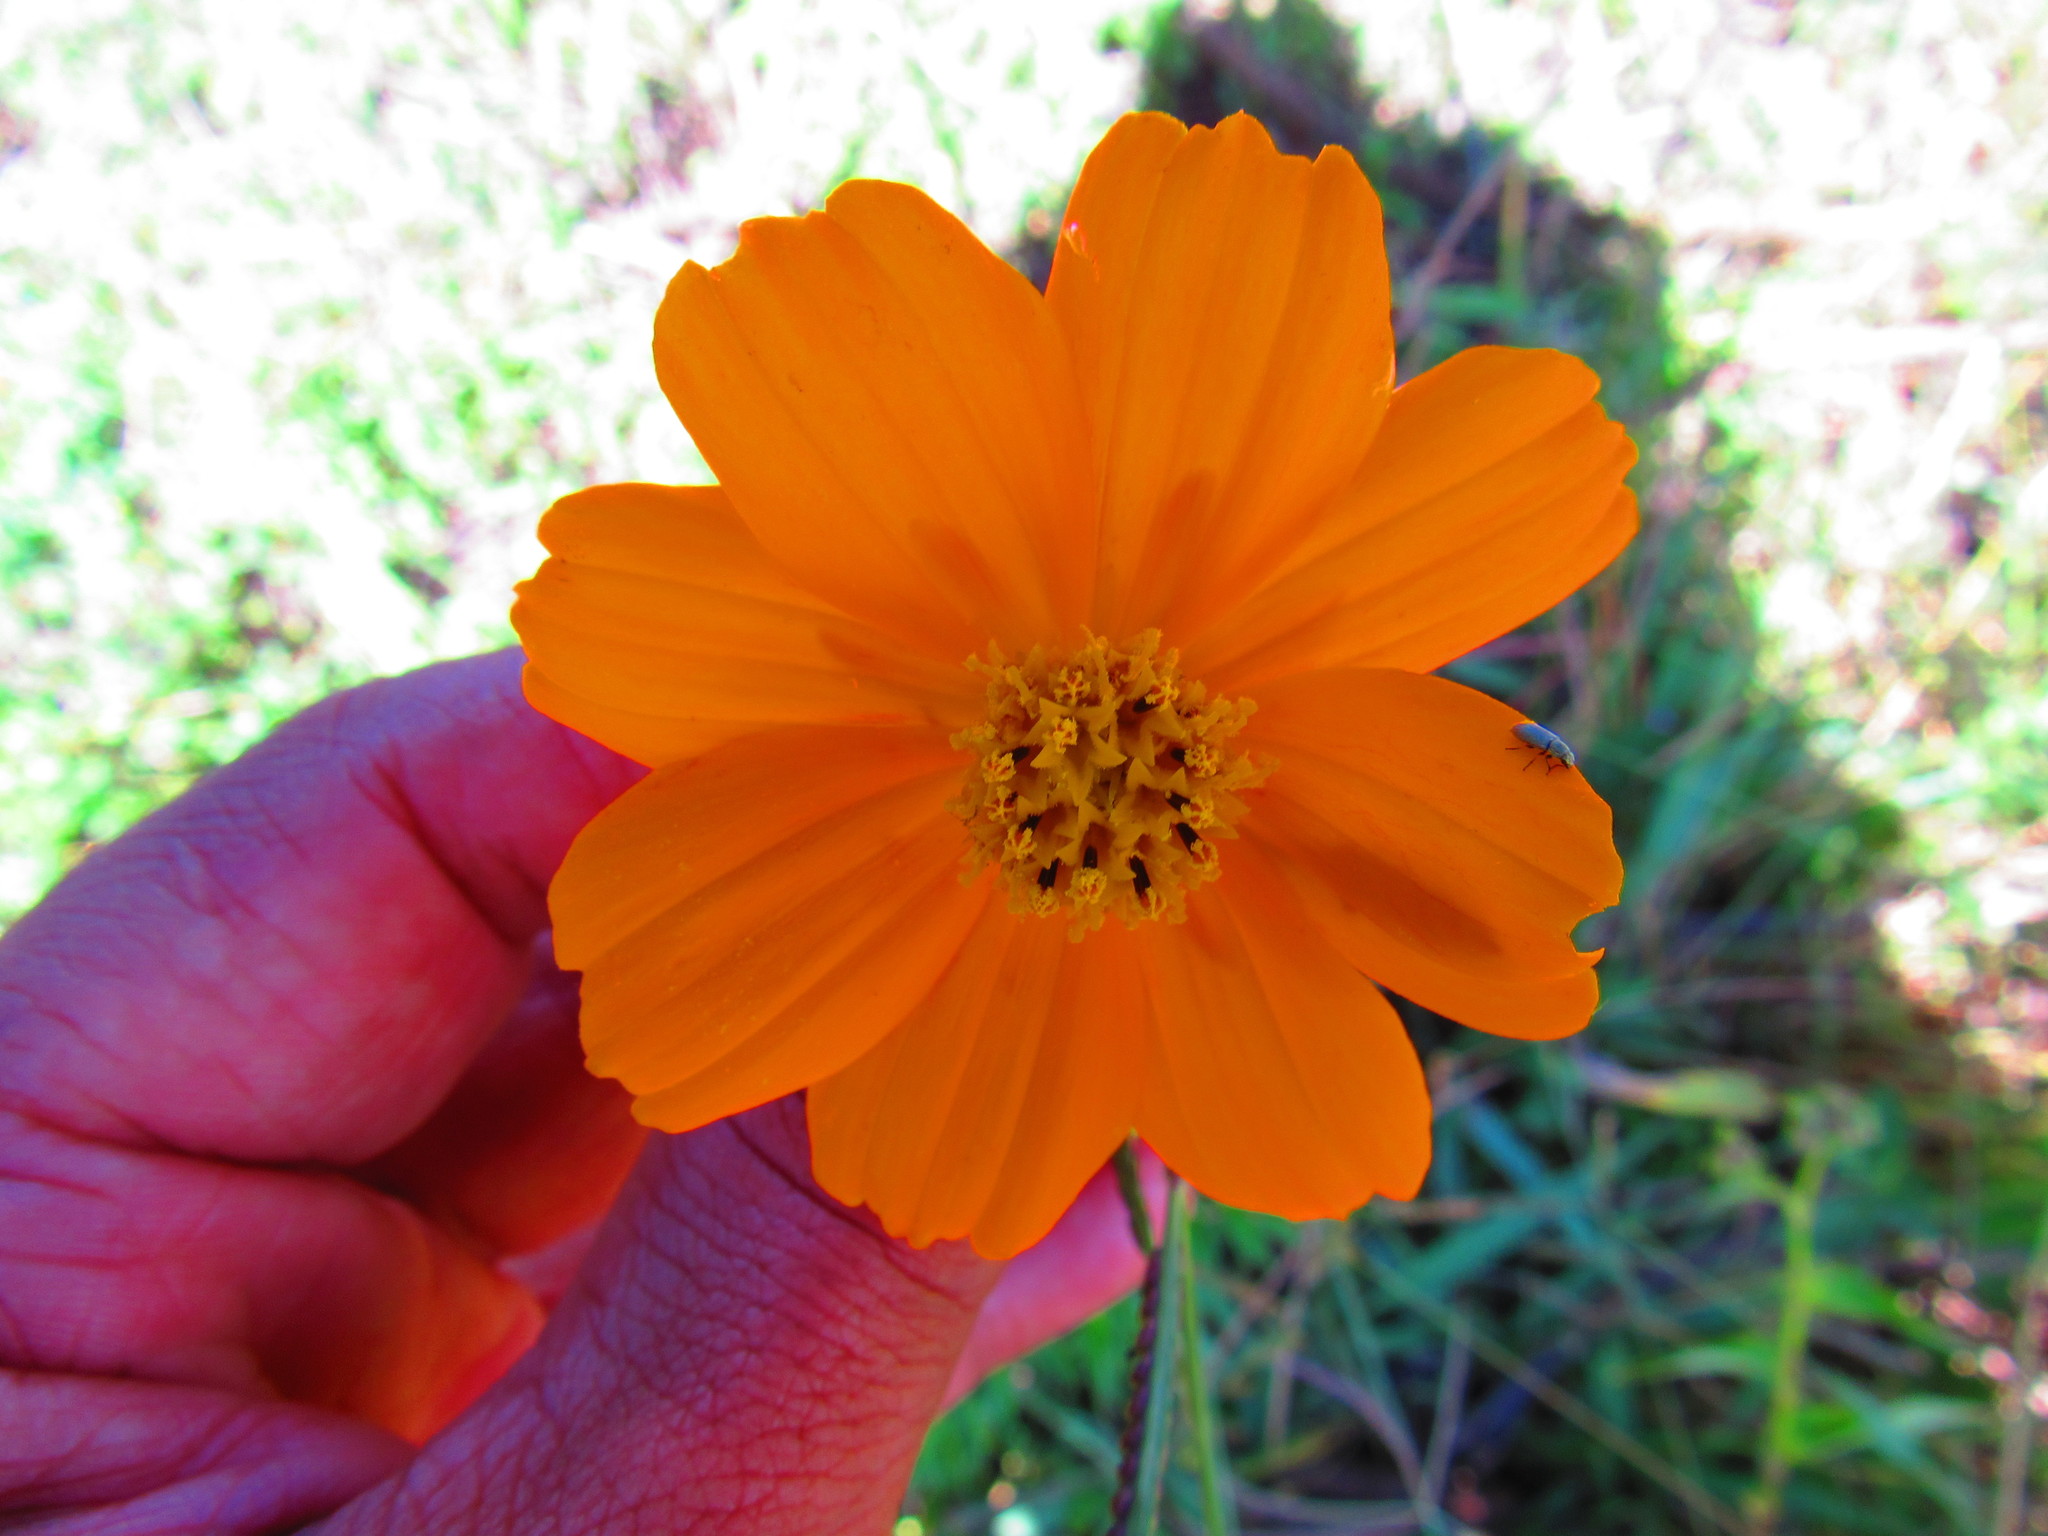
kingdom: Plantae
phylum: Tracheophyta
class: Magnoliopsida
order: Asterales
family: Asteraceae
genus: Cosmos
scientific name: Cosmos sulphureus
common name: Sulphur cosmos
